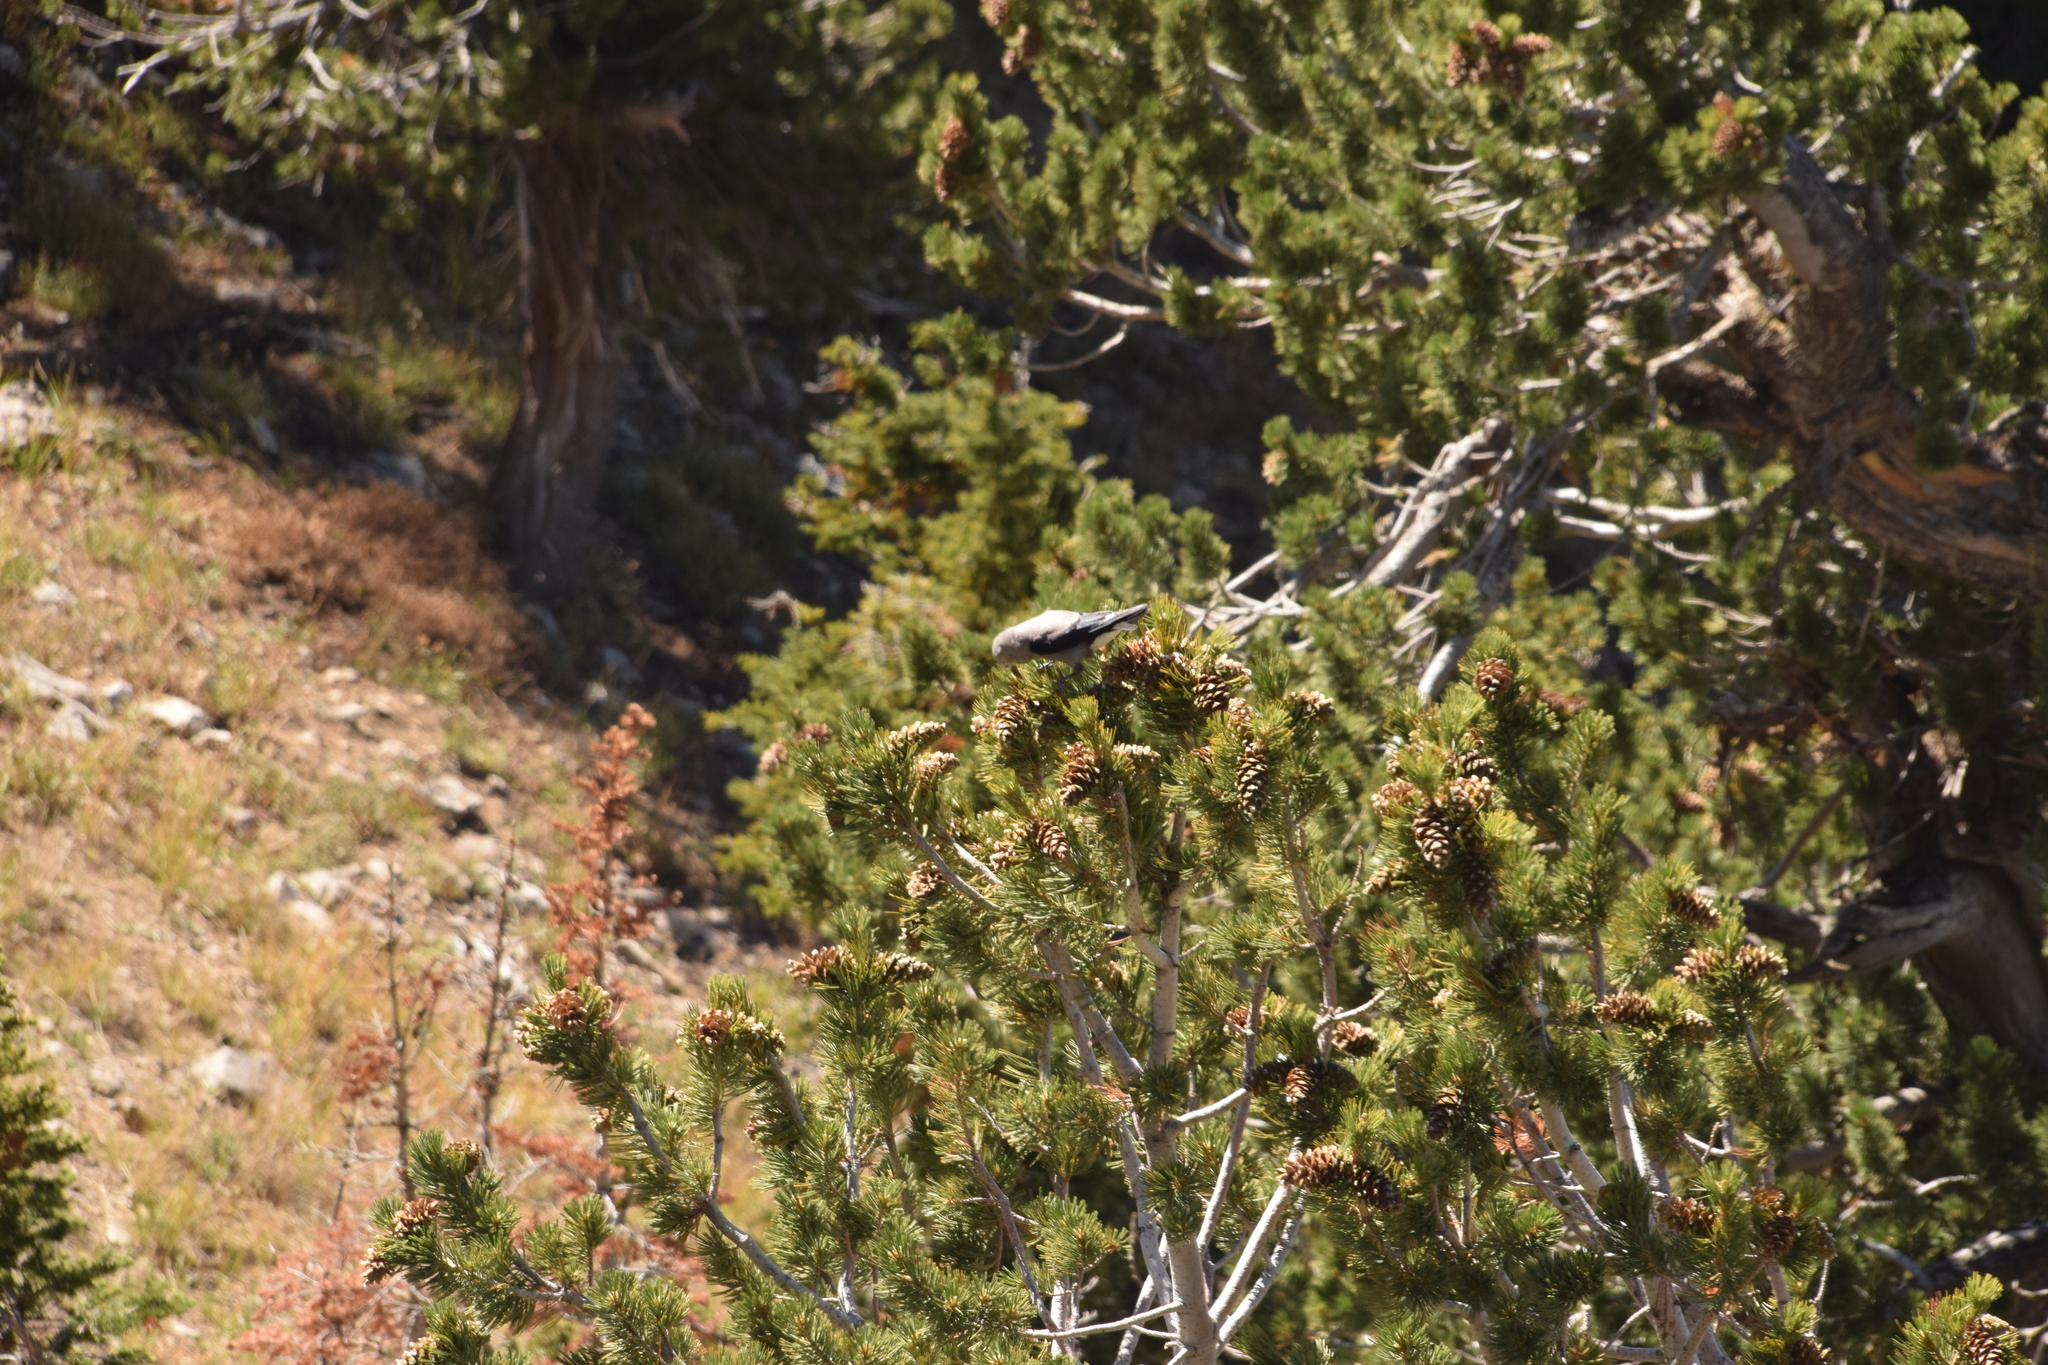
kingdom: Animalia
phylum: Chordata
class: Aves
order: Passeriformes
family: Corvidae
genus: Nucifraga
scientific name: Nucifraga columbiana
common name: Clark's nutcracker
